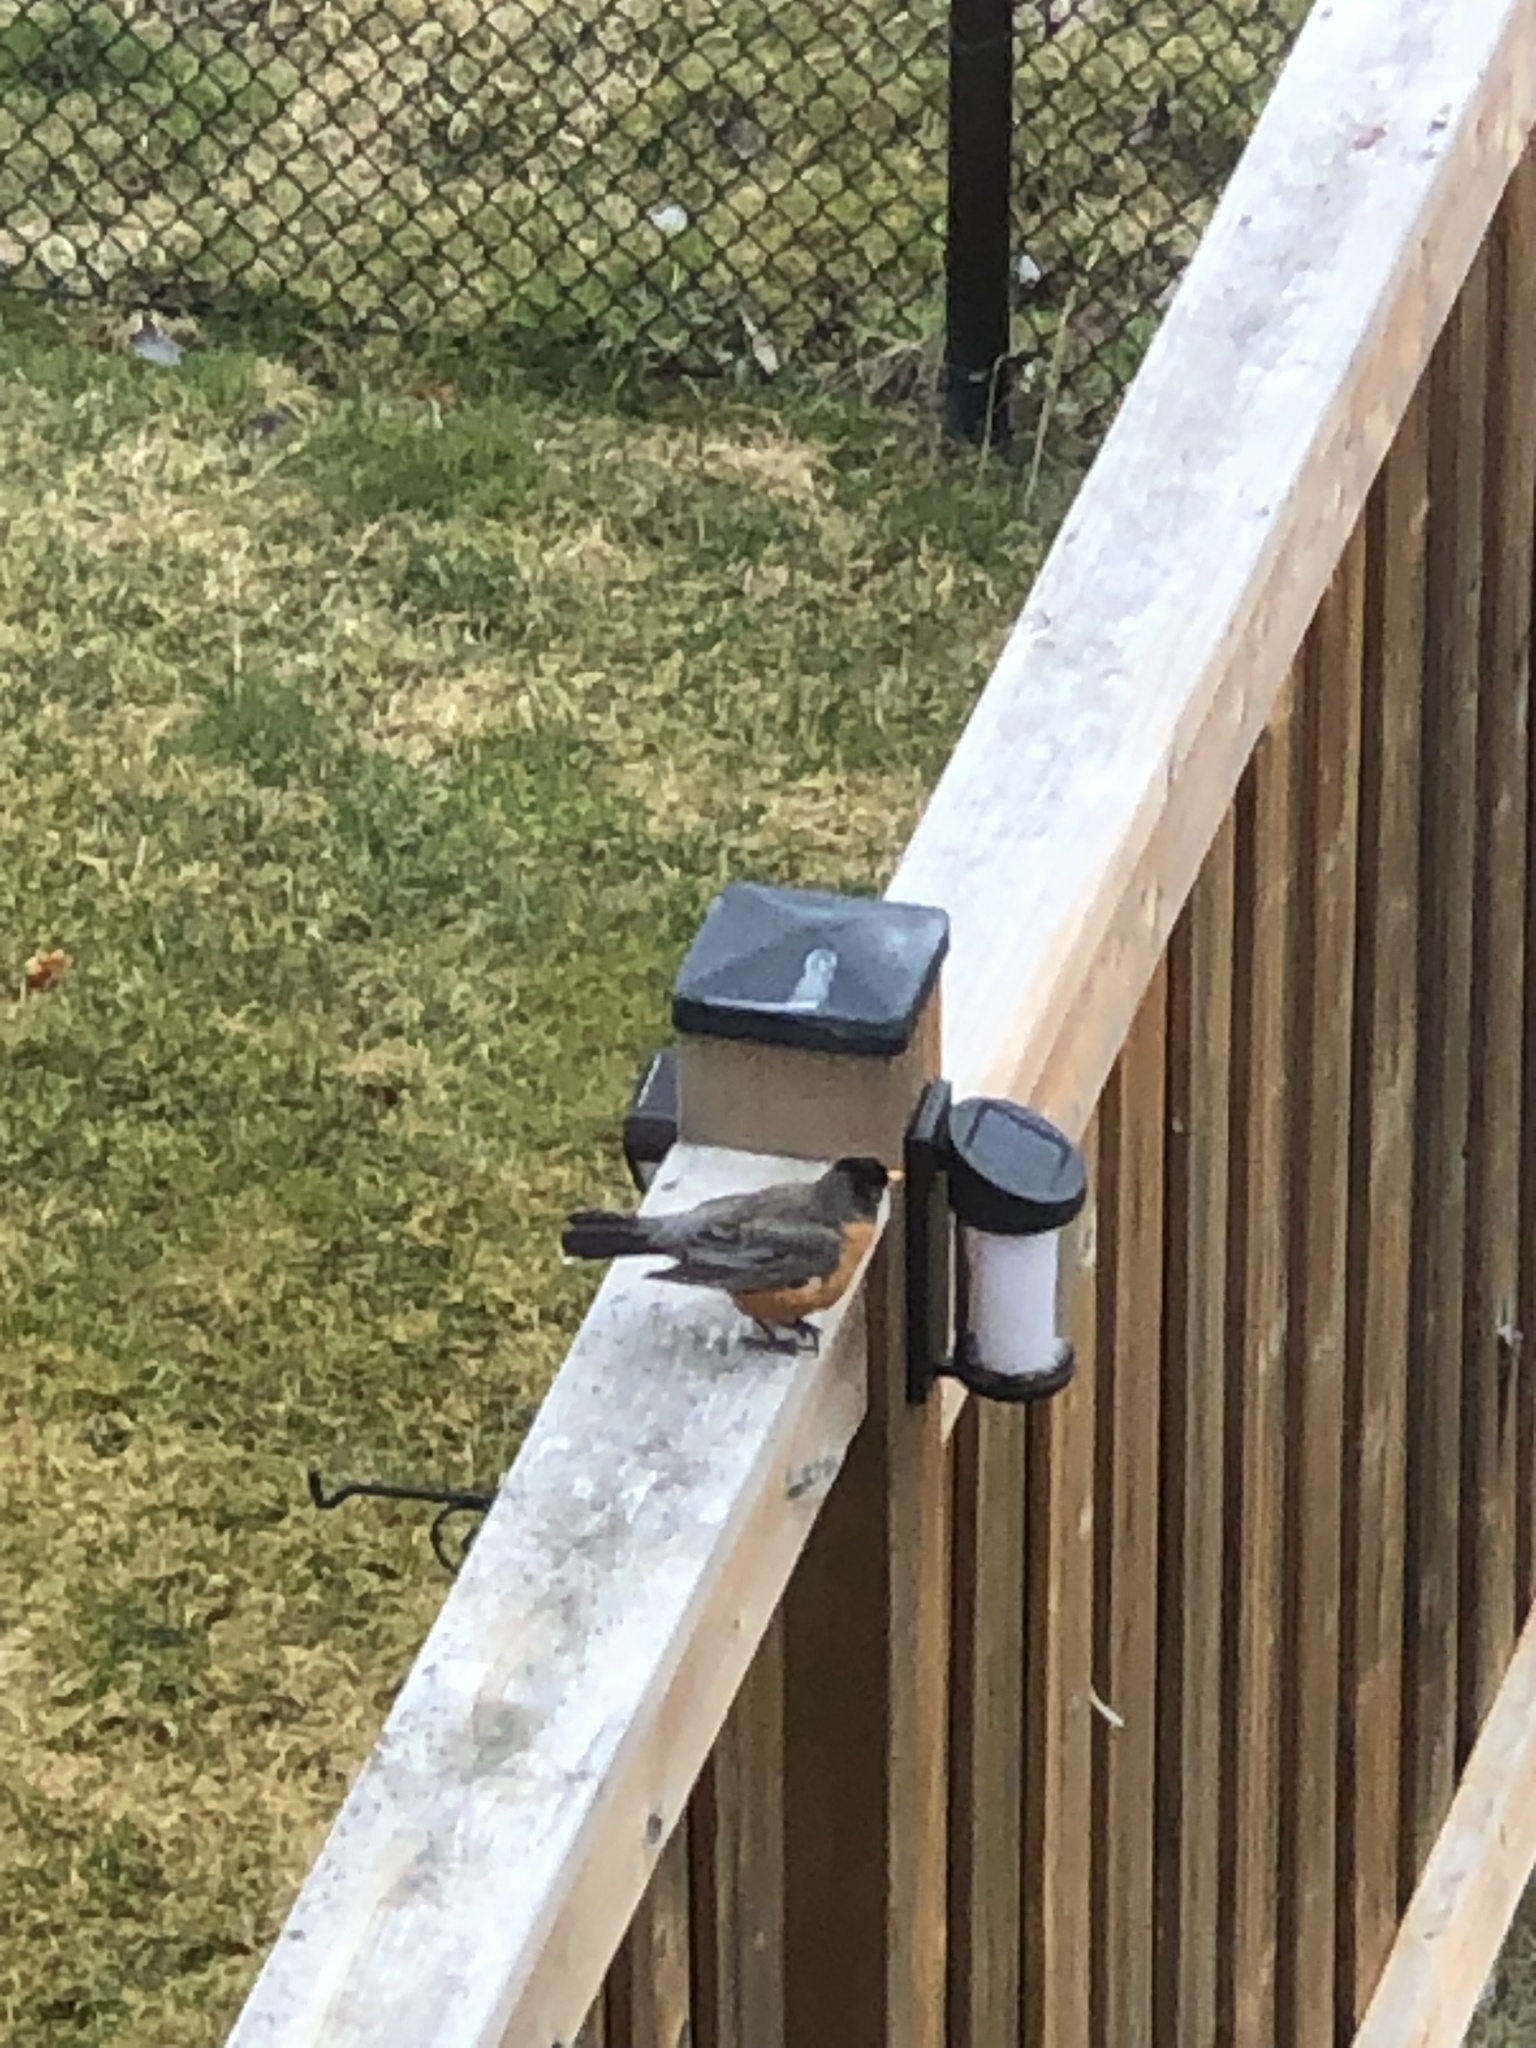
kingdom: Animalia
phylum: Chordata
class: Aves
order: Passeriformes
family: Turdidae
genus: Turdus
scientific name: Turdus migratorius
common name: American robin
